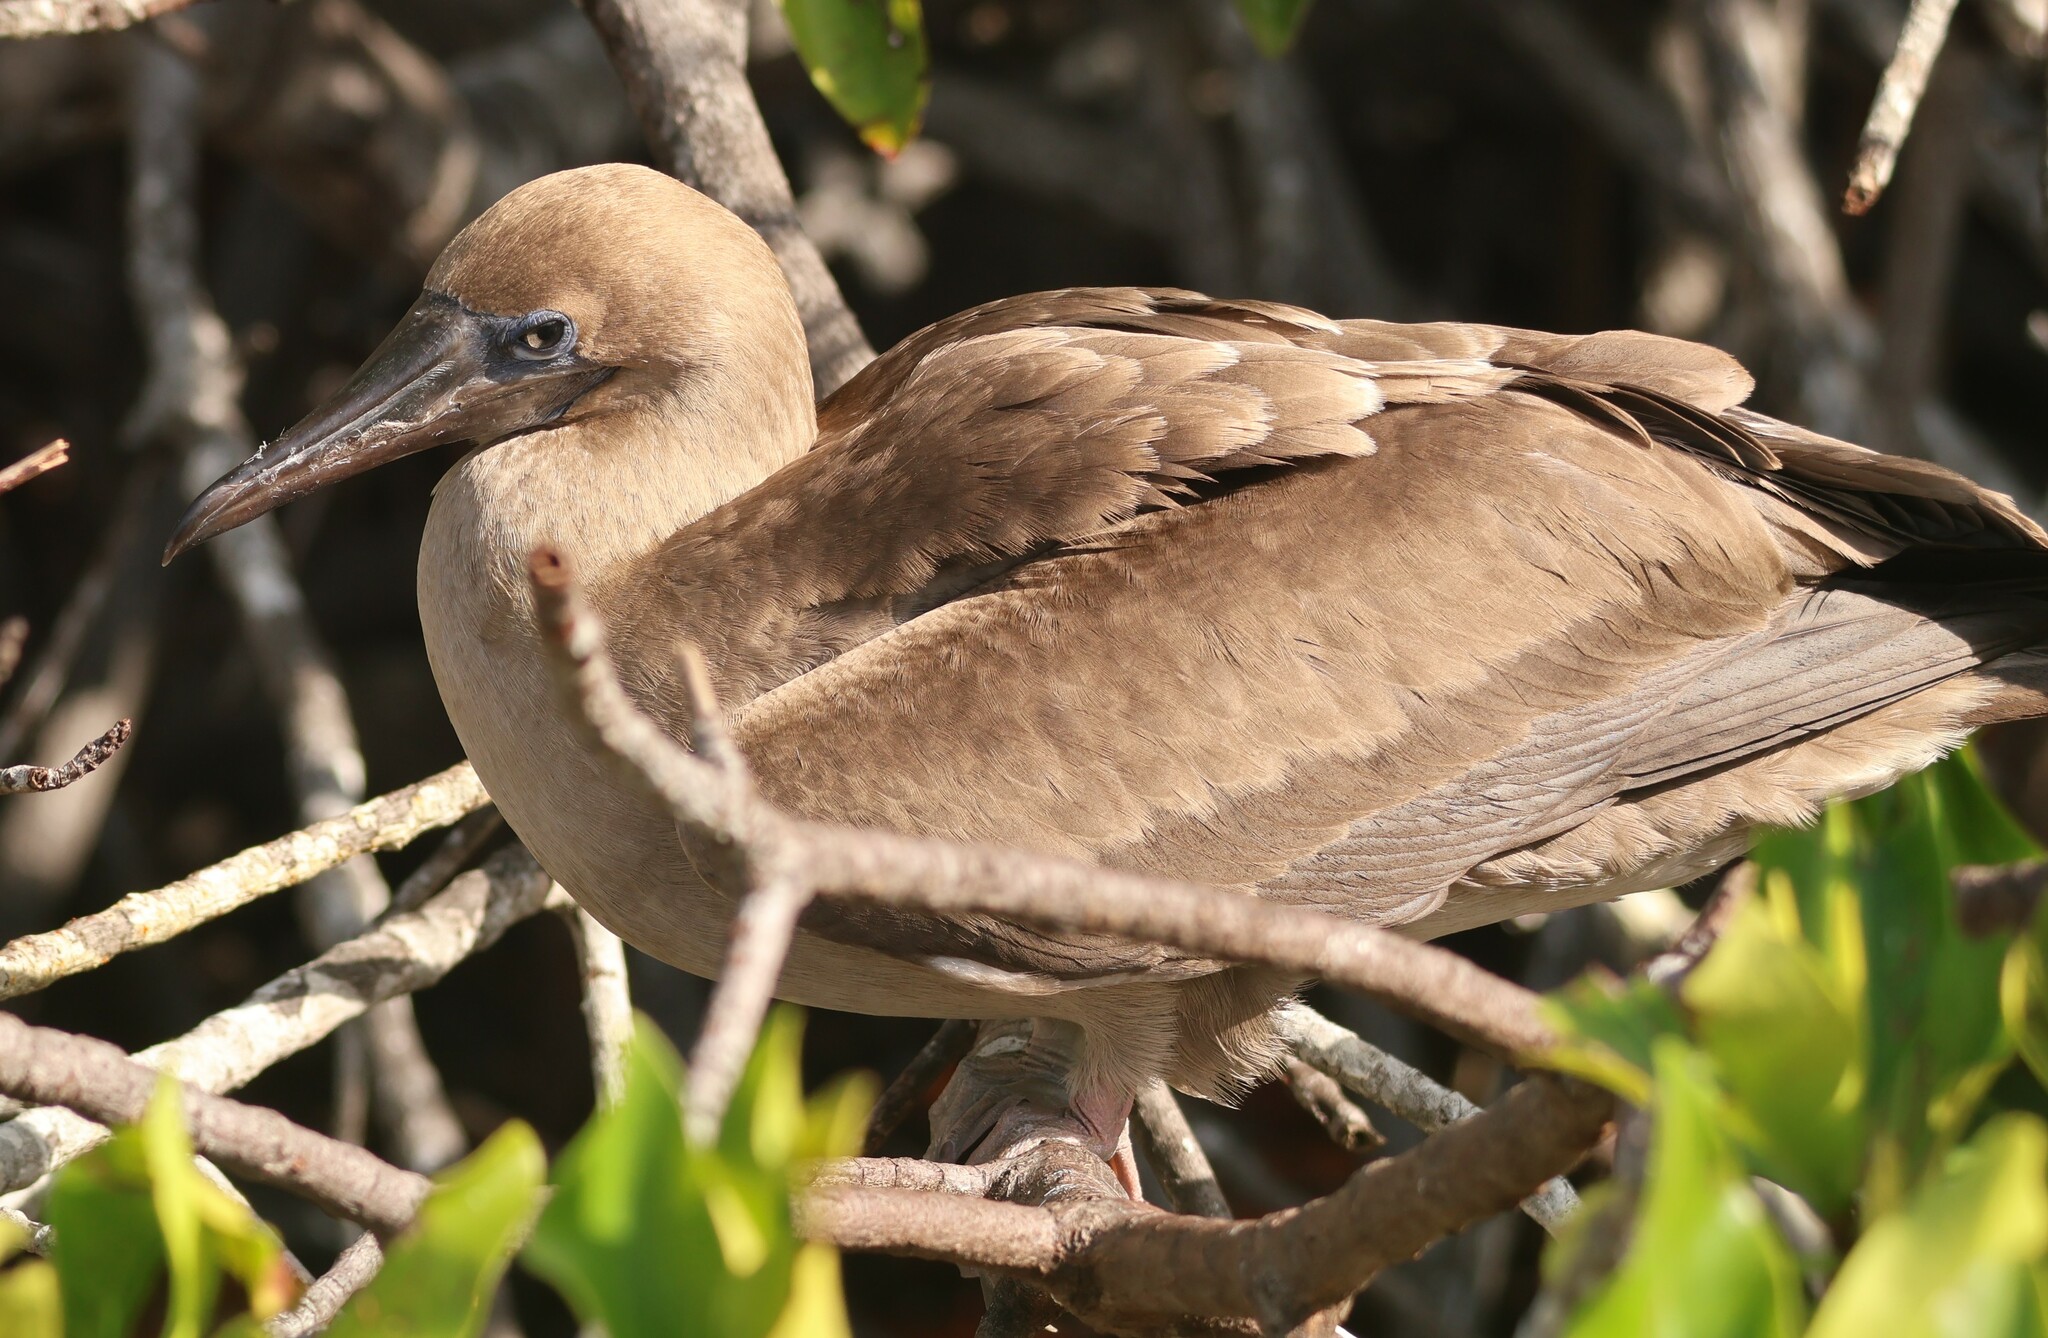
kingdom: Animalia
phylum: Chordata
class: Aves
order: Suliformes
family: Sulidae
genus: Sula
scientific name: Sula sula
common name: Red-footed booby
